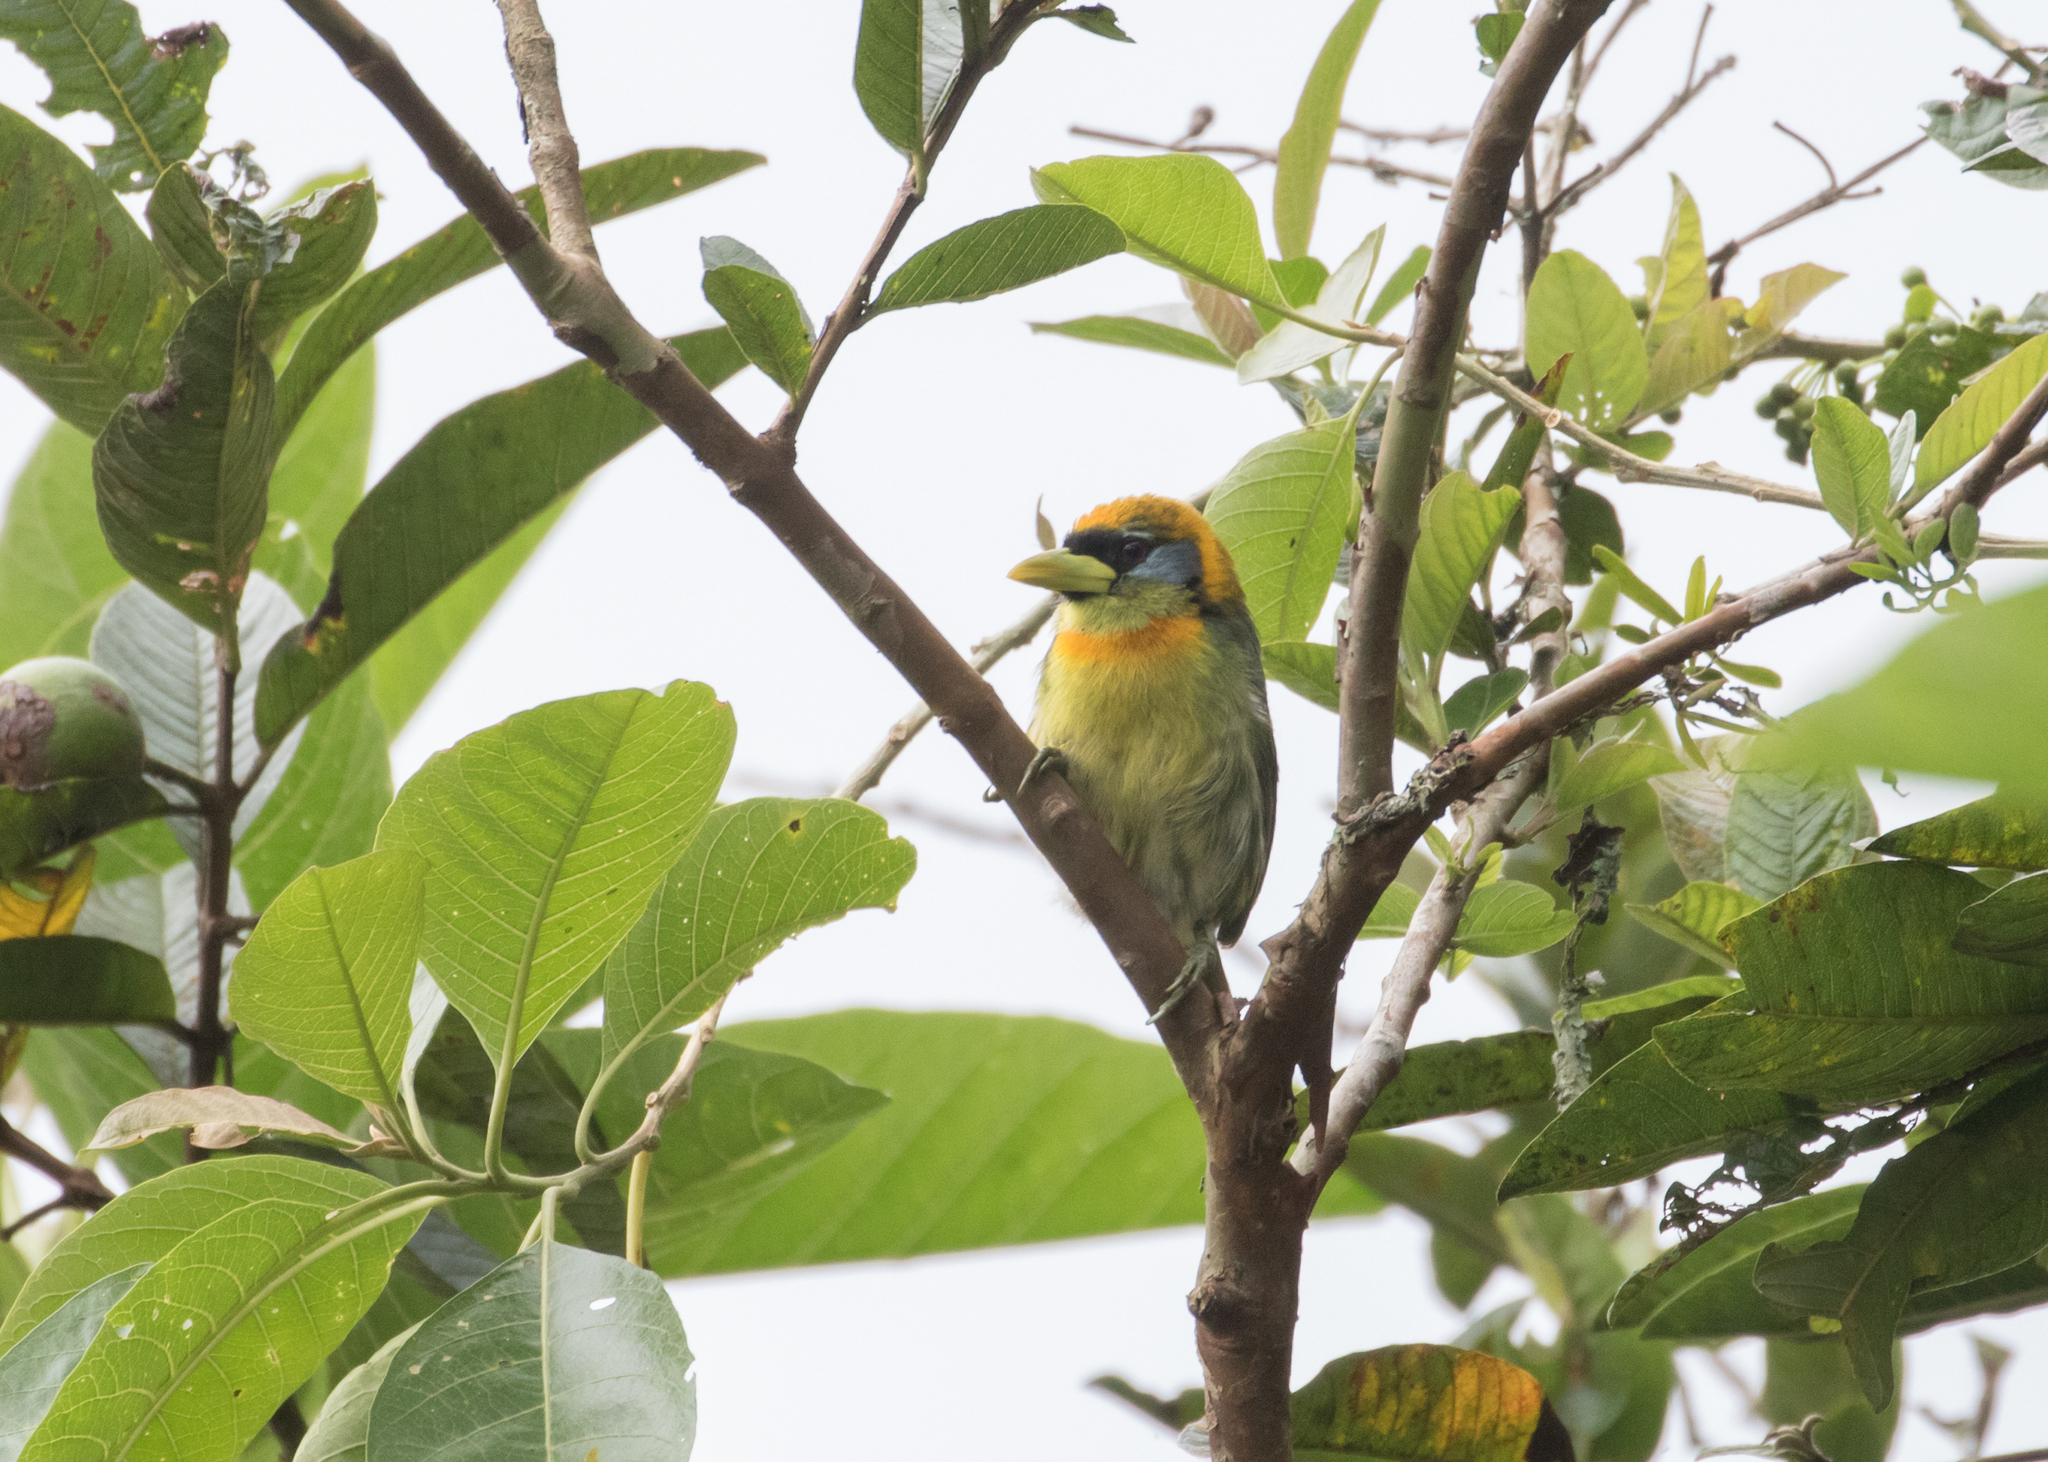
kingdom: Animalia
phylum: Chordata
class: Aves
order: Piciformes
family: Capitonidae
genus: Eubucco
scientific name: Eubucco bourcierii
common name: Red-headed barbet
